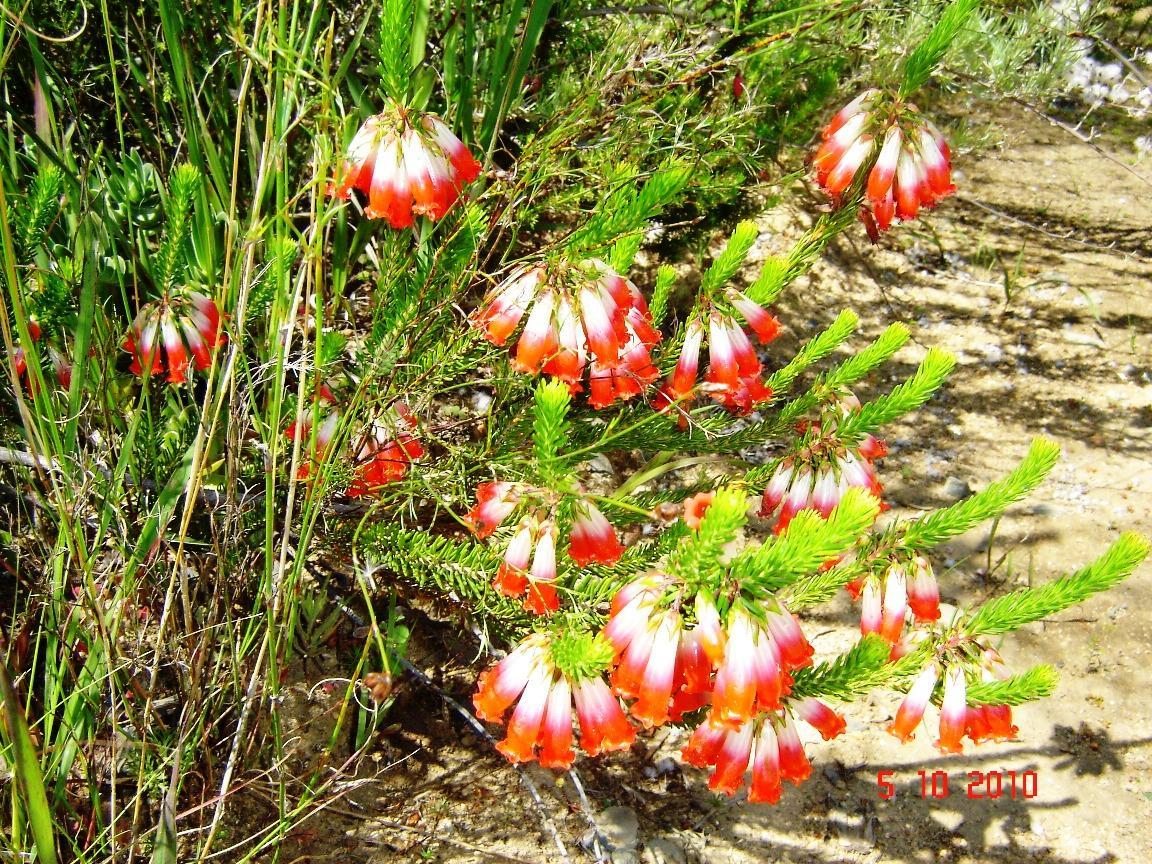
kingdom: Plantae
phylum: Tracheophyta
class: Magnoliopsida
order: Ericales
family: Ericaceae
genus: Erica
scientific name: Erica regia
